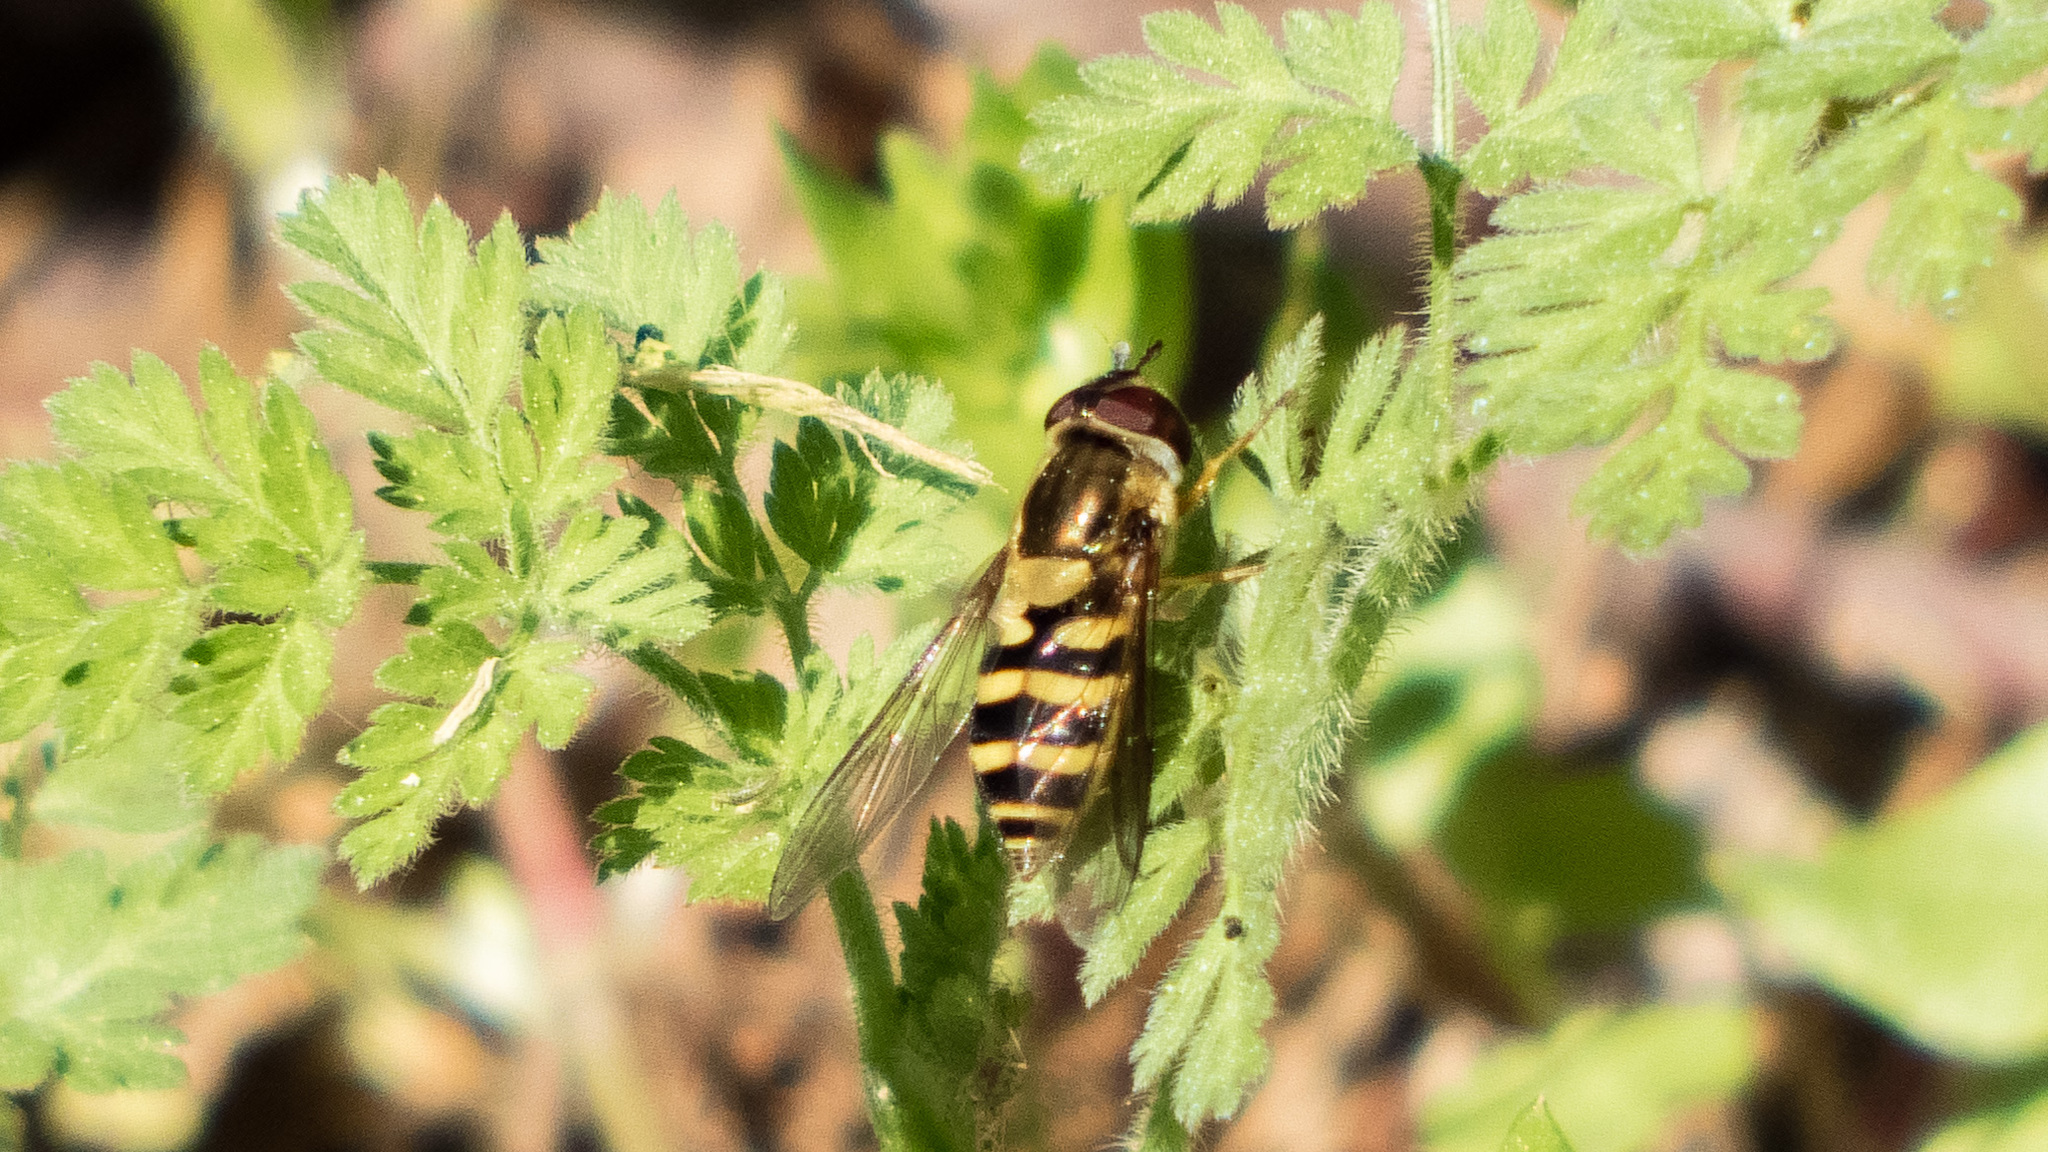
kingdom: Animalia
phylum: Arthropoda
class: Insecta
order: Diptera
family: Syrphidae
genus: Syrphus
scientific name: Syrphus
